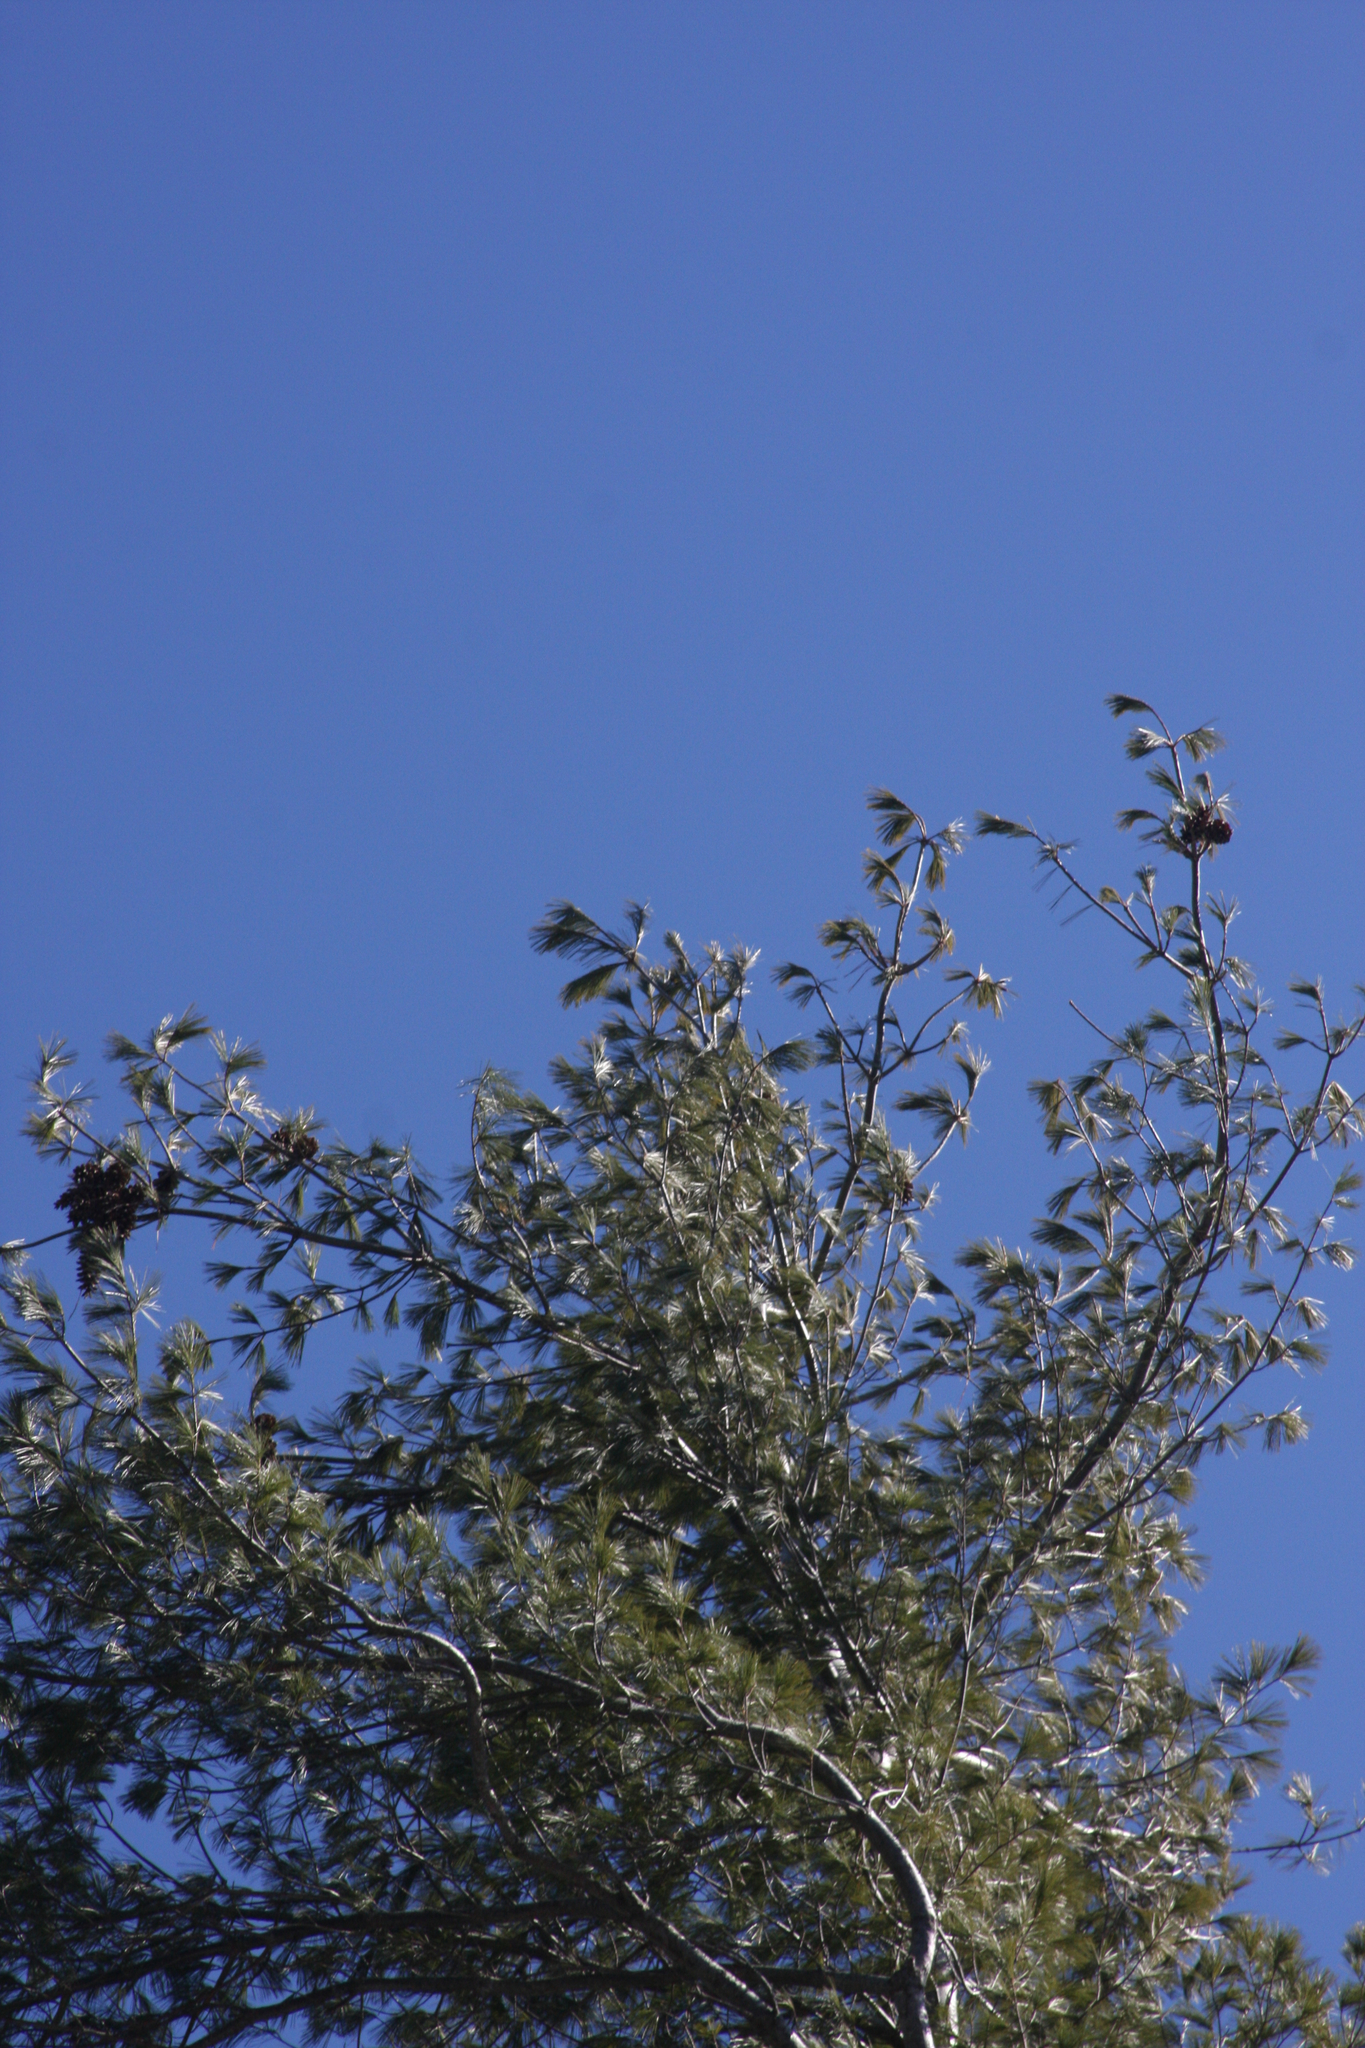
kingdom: Plantae
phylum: Tracheophyta
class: Pinopsida
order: Pinales
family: Pinaceae
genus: Pinus
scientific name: Pinus strobus
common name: Weymouth pine
